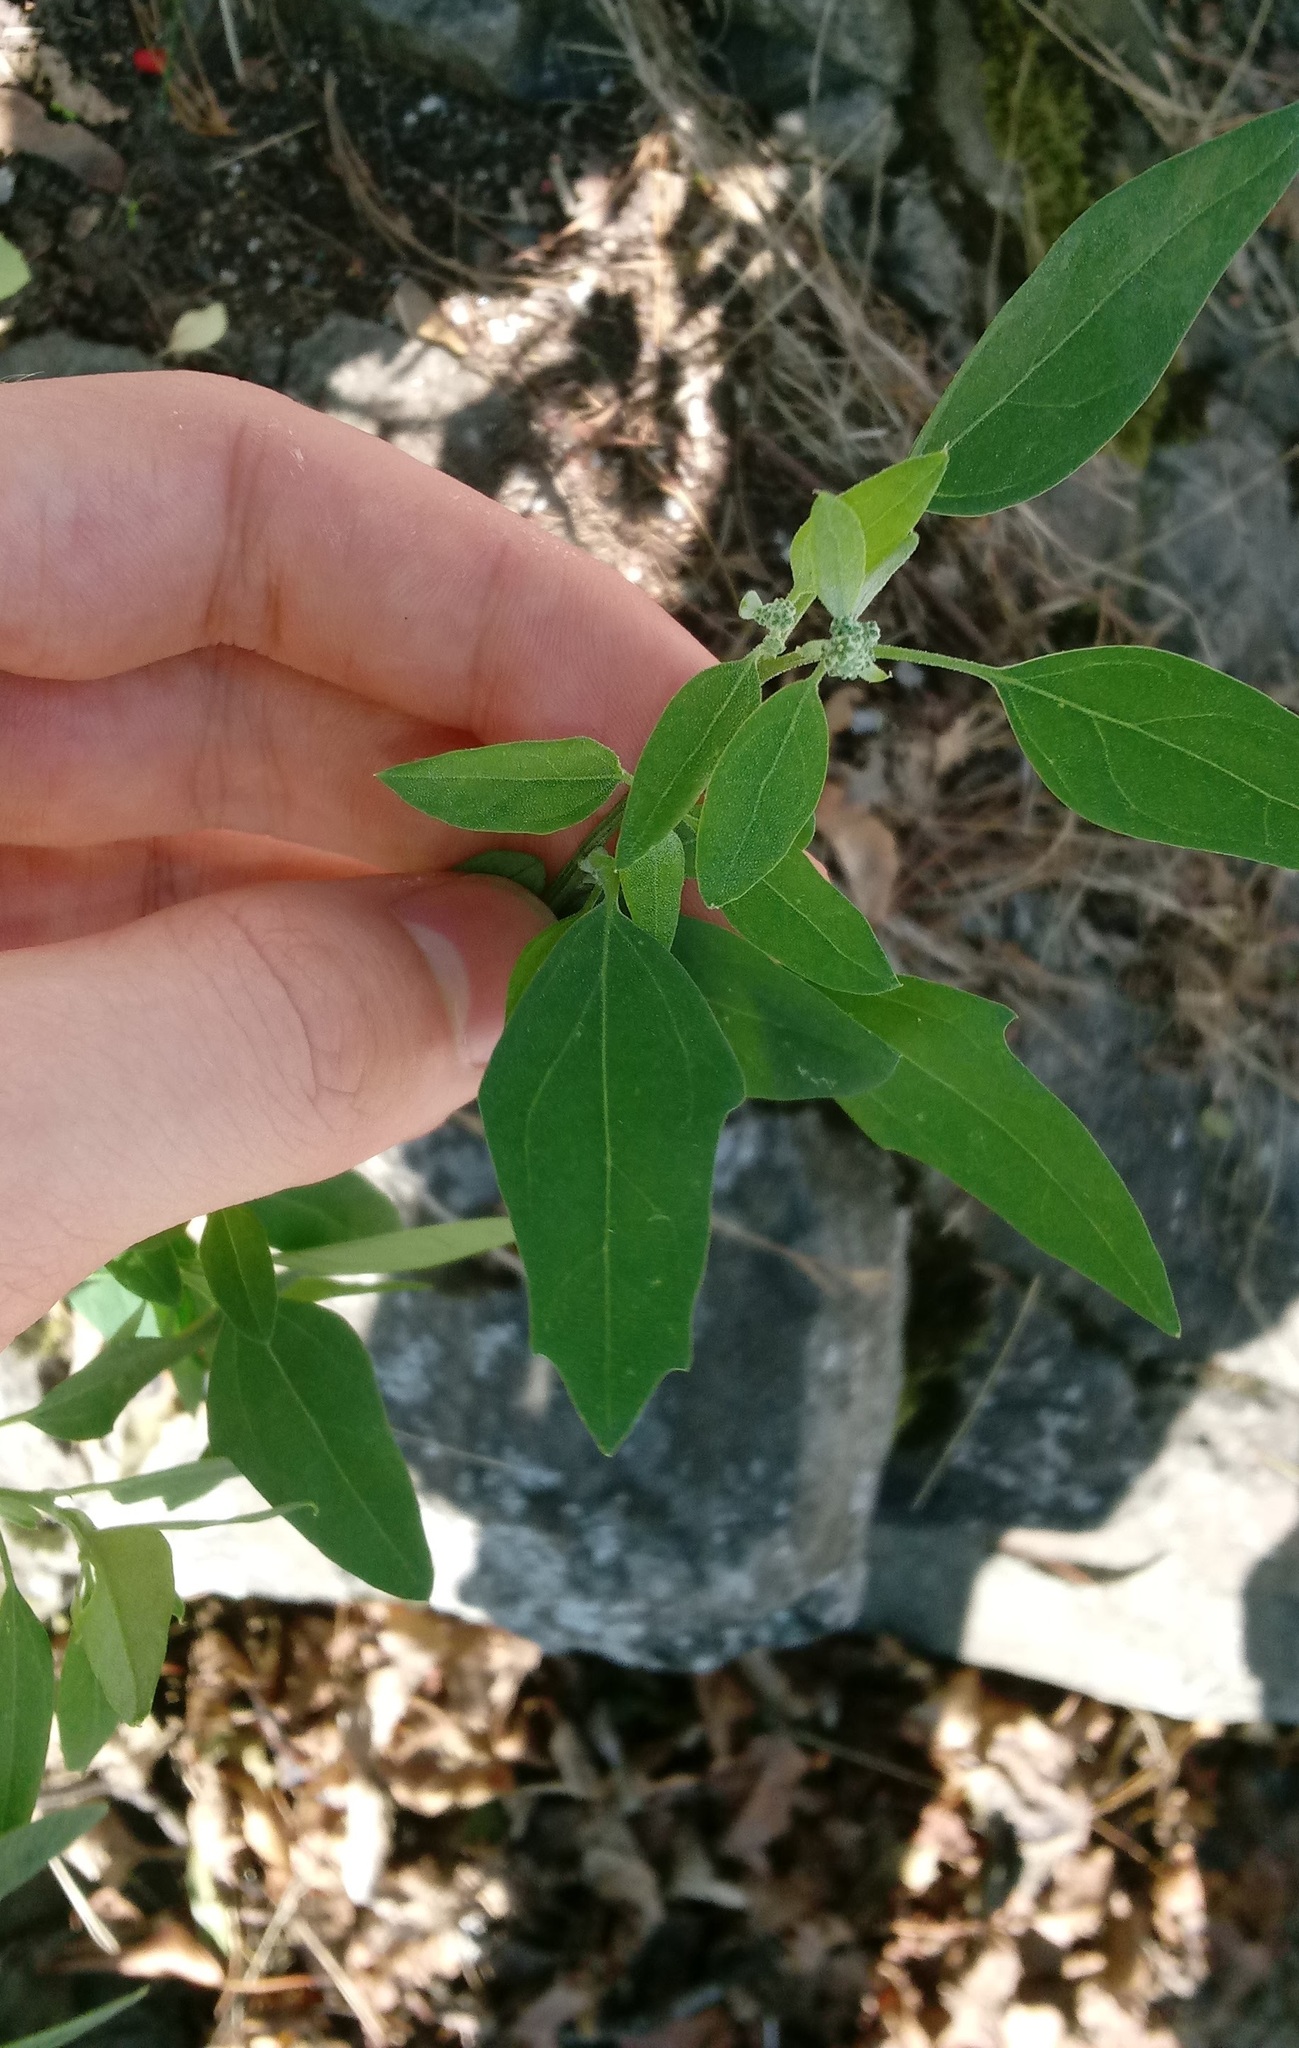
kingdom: Plantae
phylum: Tracheophyta
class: Magnoliopsida
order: Caryophyllales
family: Amaranthaceae
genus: Chenopodium
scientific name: Chenopodium album
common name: Fat-hen
